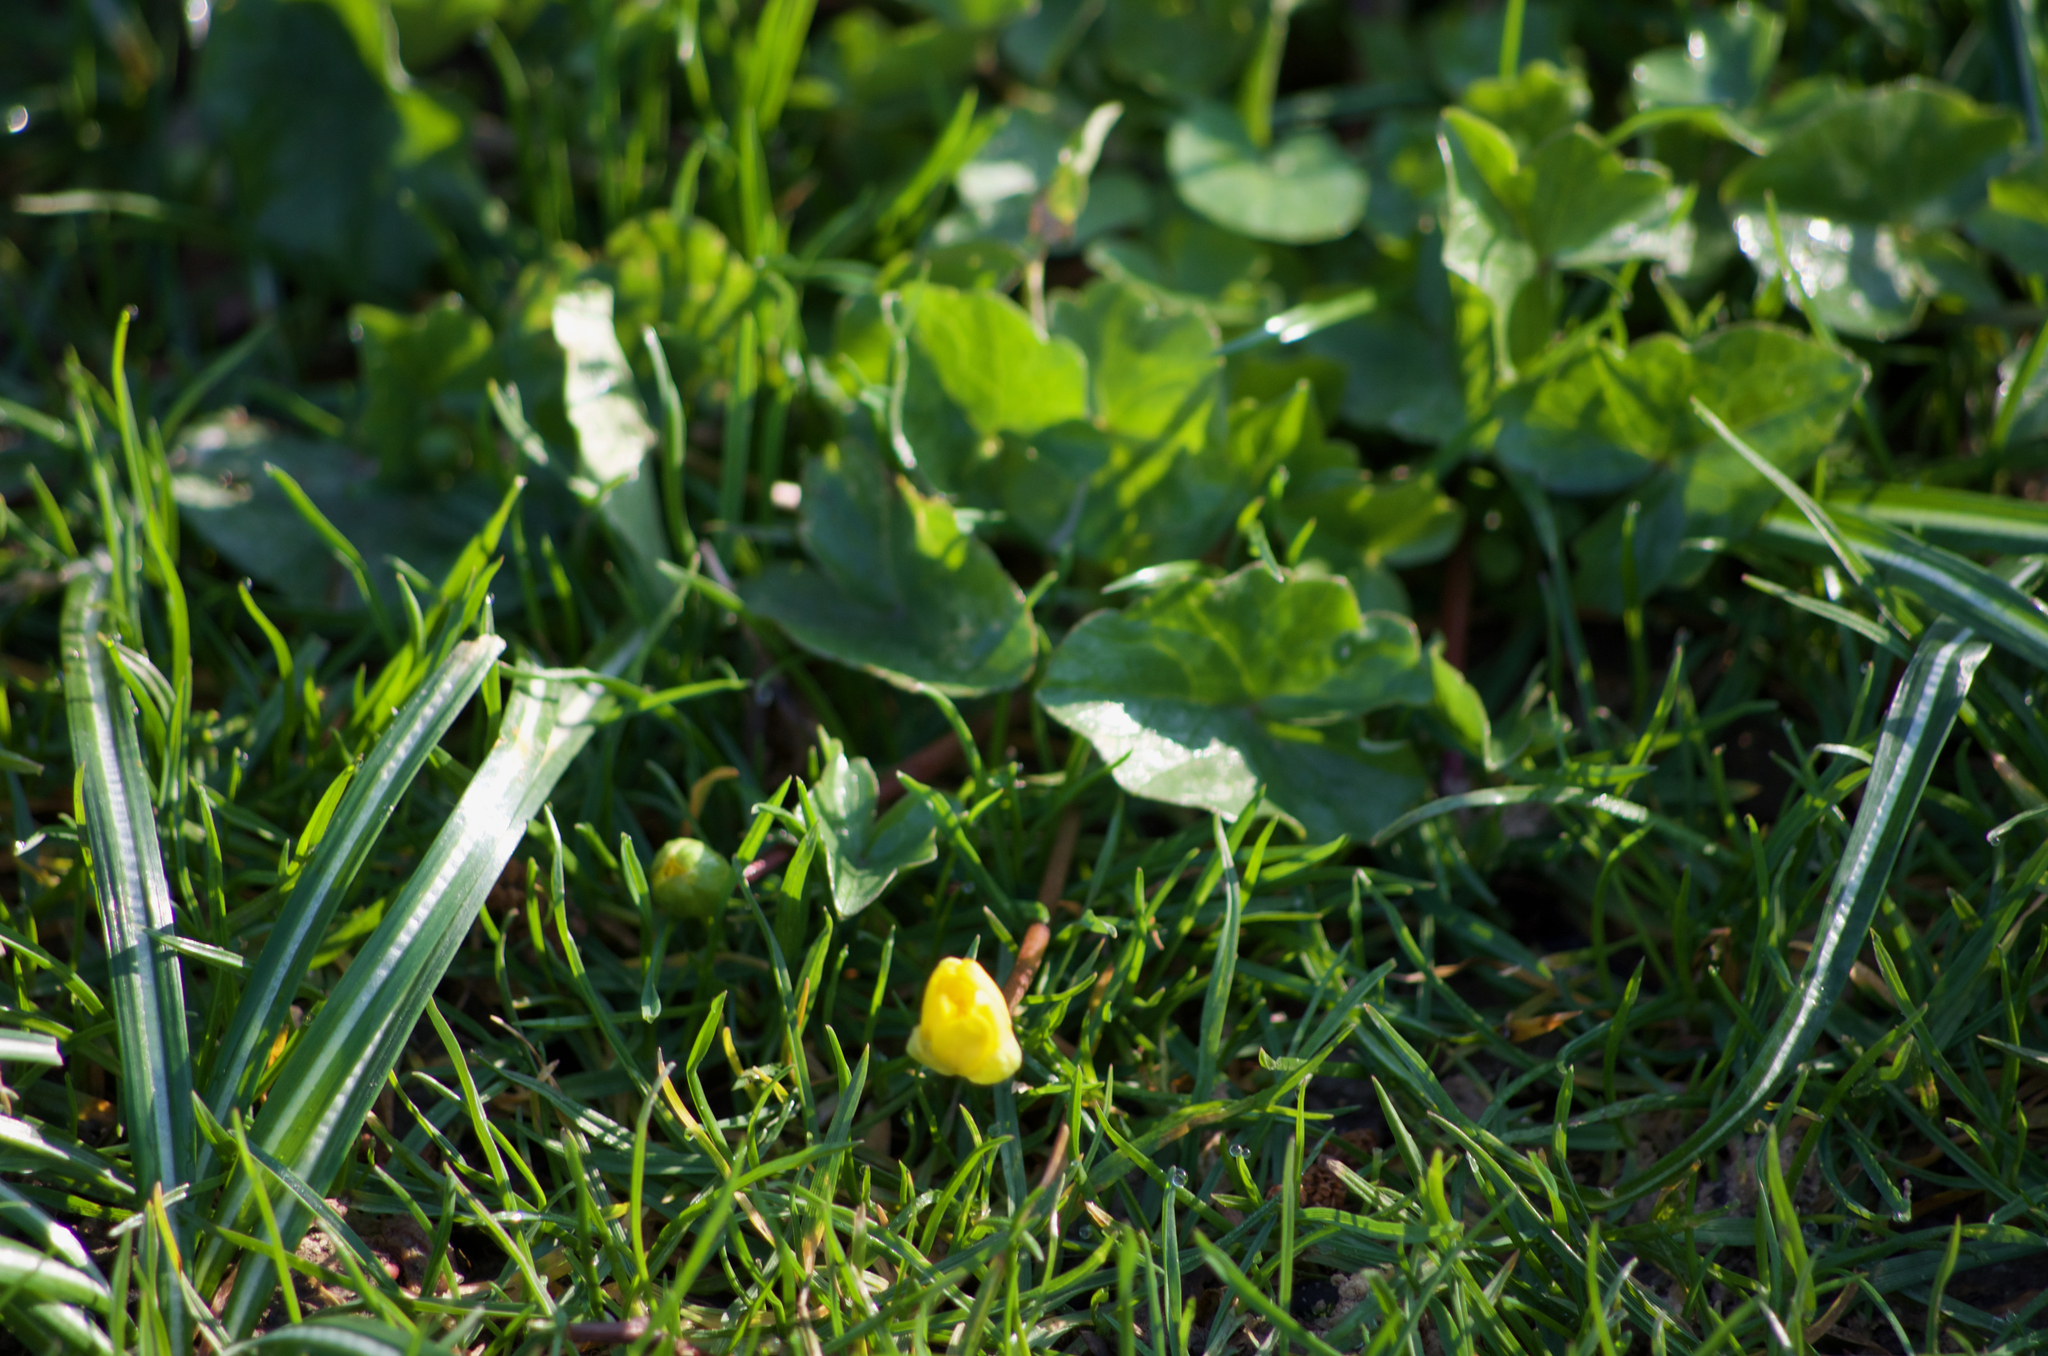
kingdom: Plantae
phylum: Tracheophyta
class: Magnoliopsida
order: Ranunculales
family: Ranunculaceae
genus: Ficaria
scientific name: Ficaria verna
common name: Lesser celandine
